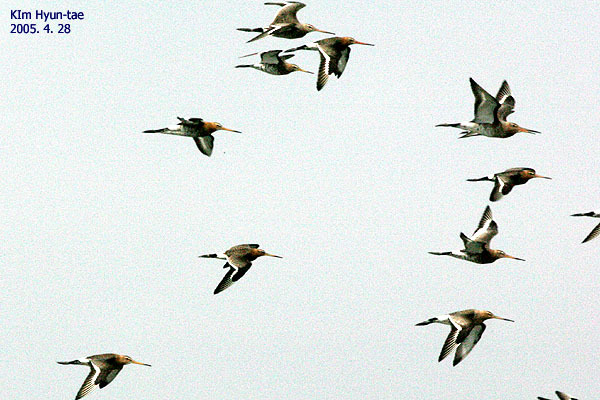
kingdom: Animalia
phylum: Chordata
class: Aves
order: Charadriiformes
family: Scolopacidae
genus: Limosa
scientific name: Limosa limosa
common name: Black-tailed godwit
